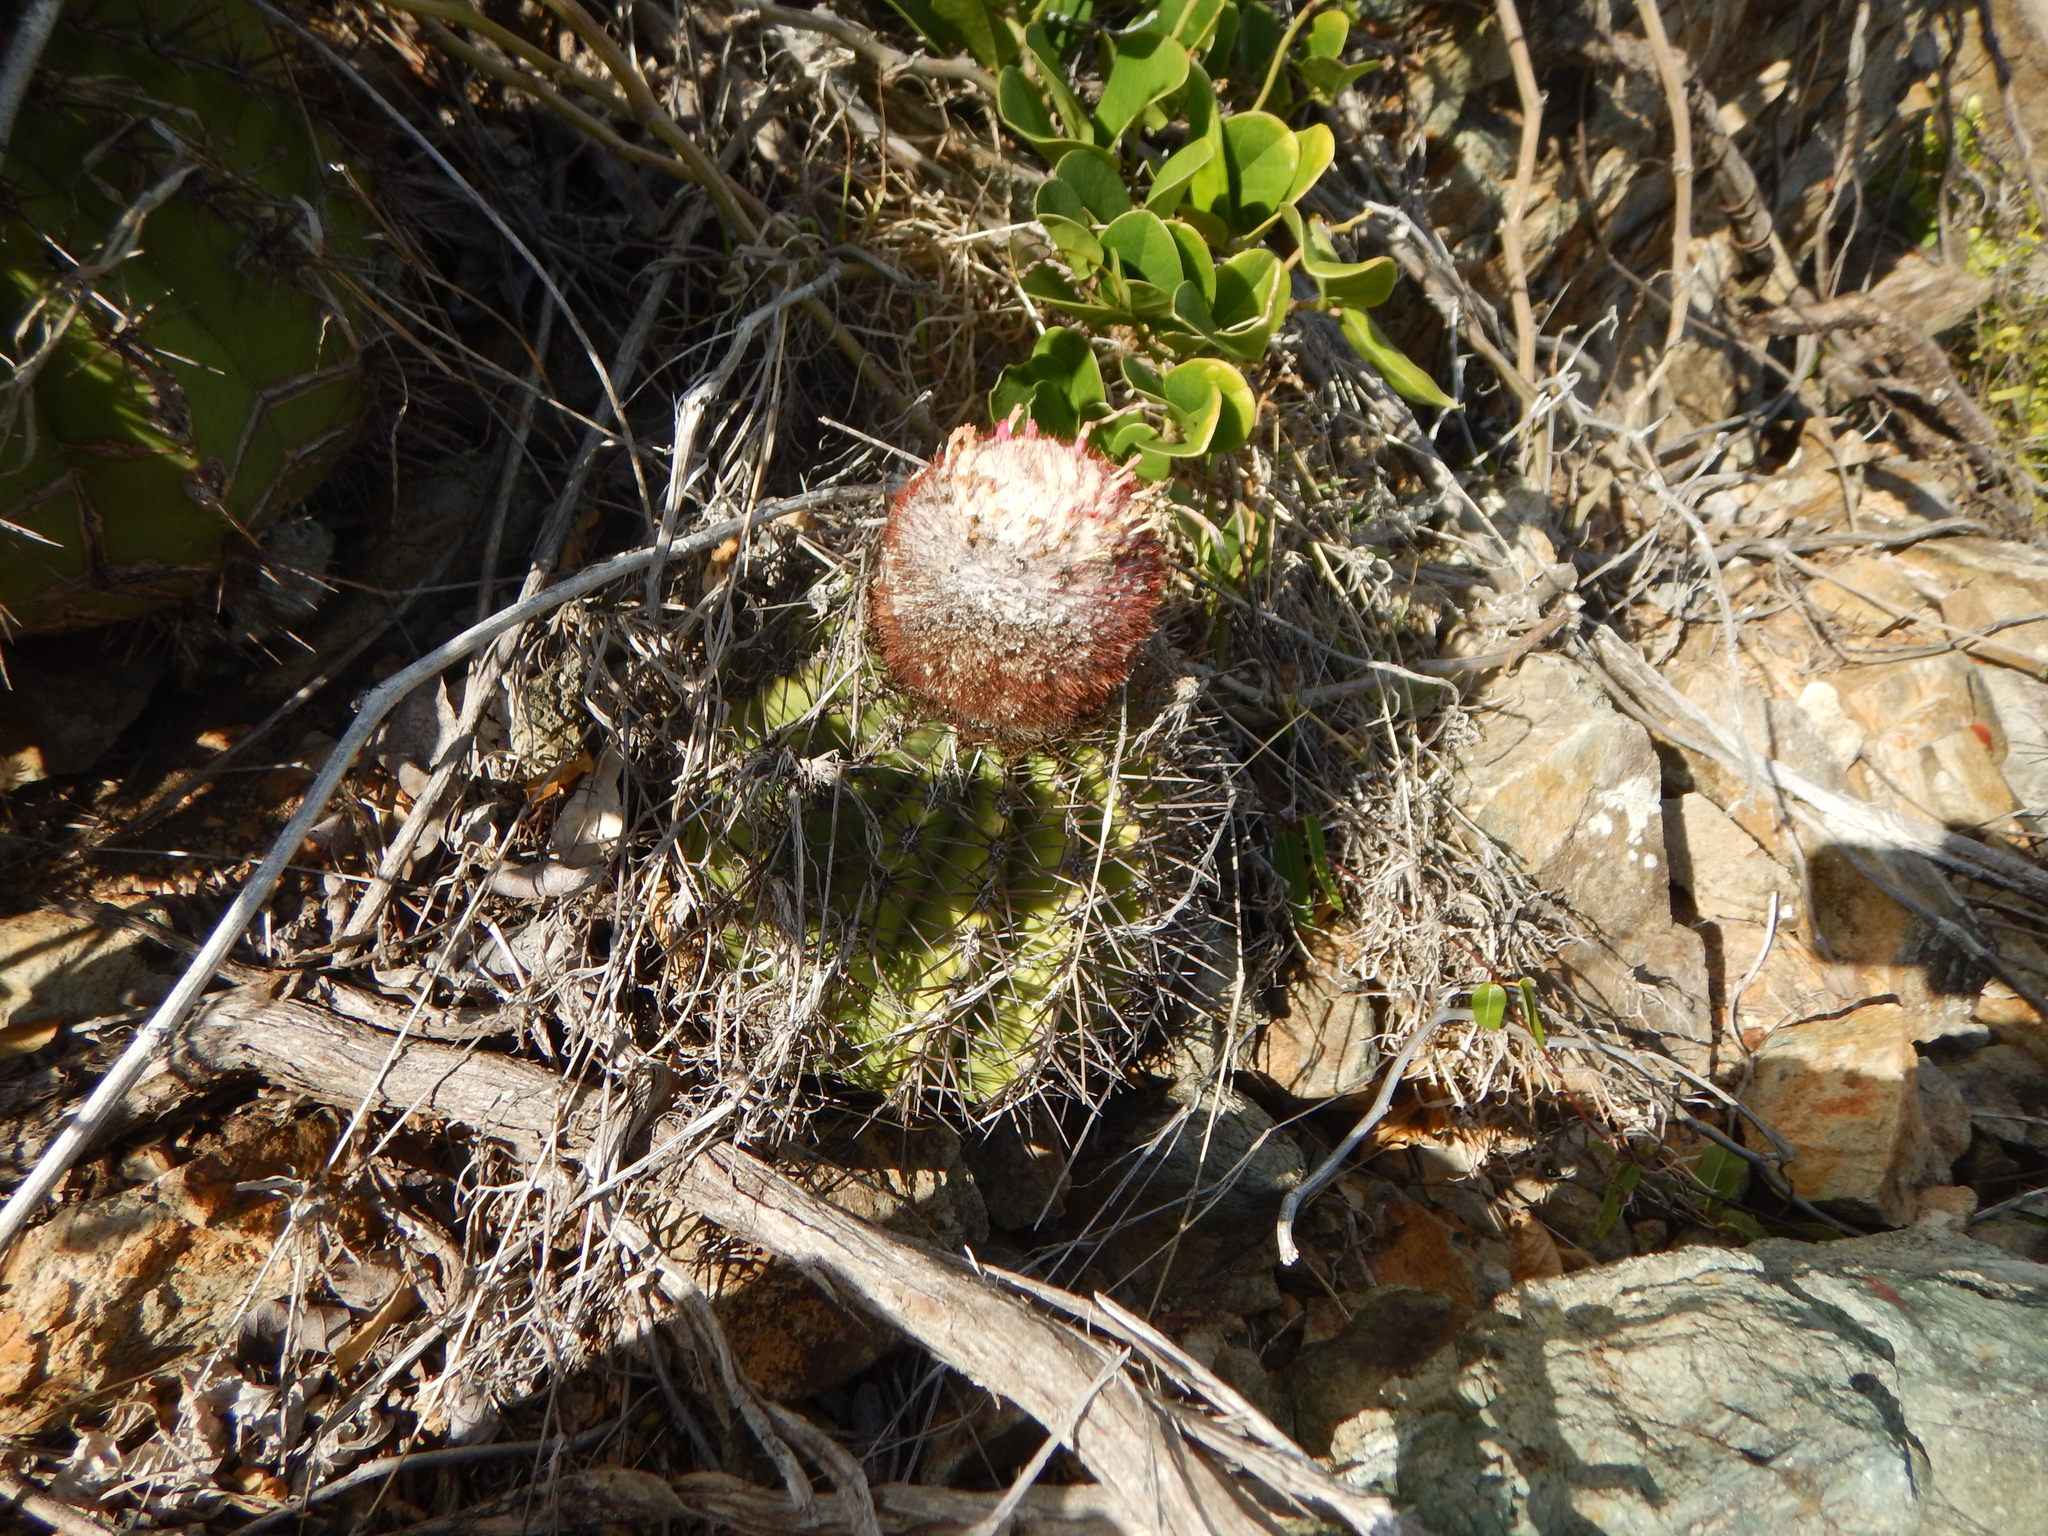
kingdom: Plantae
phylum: Tracheophyta
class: Magnoliopsida
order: Caryophyllales
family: Cactaceae
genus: Melocactus
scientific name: Melocactus intortus
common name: Barrel cactus
